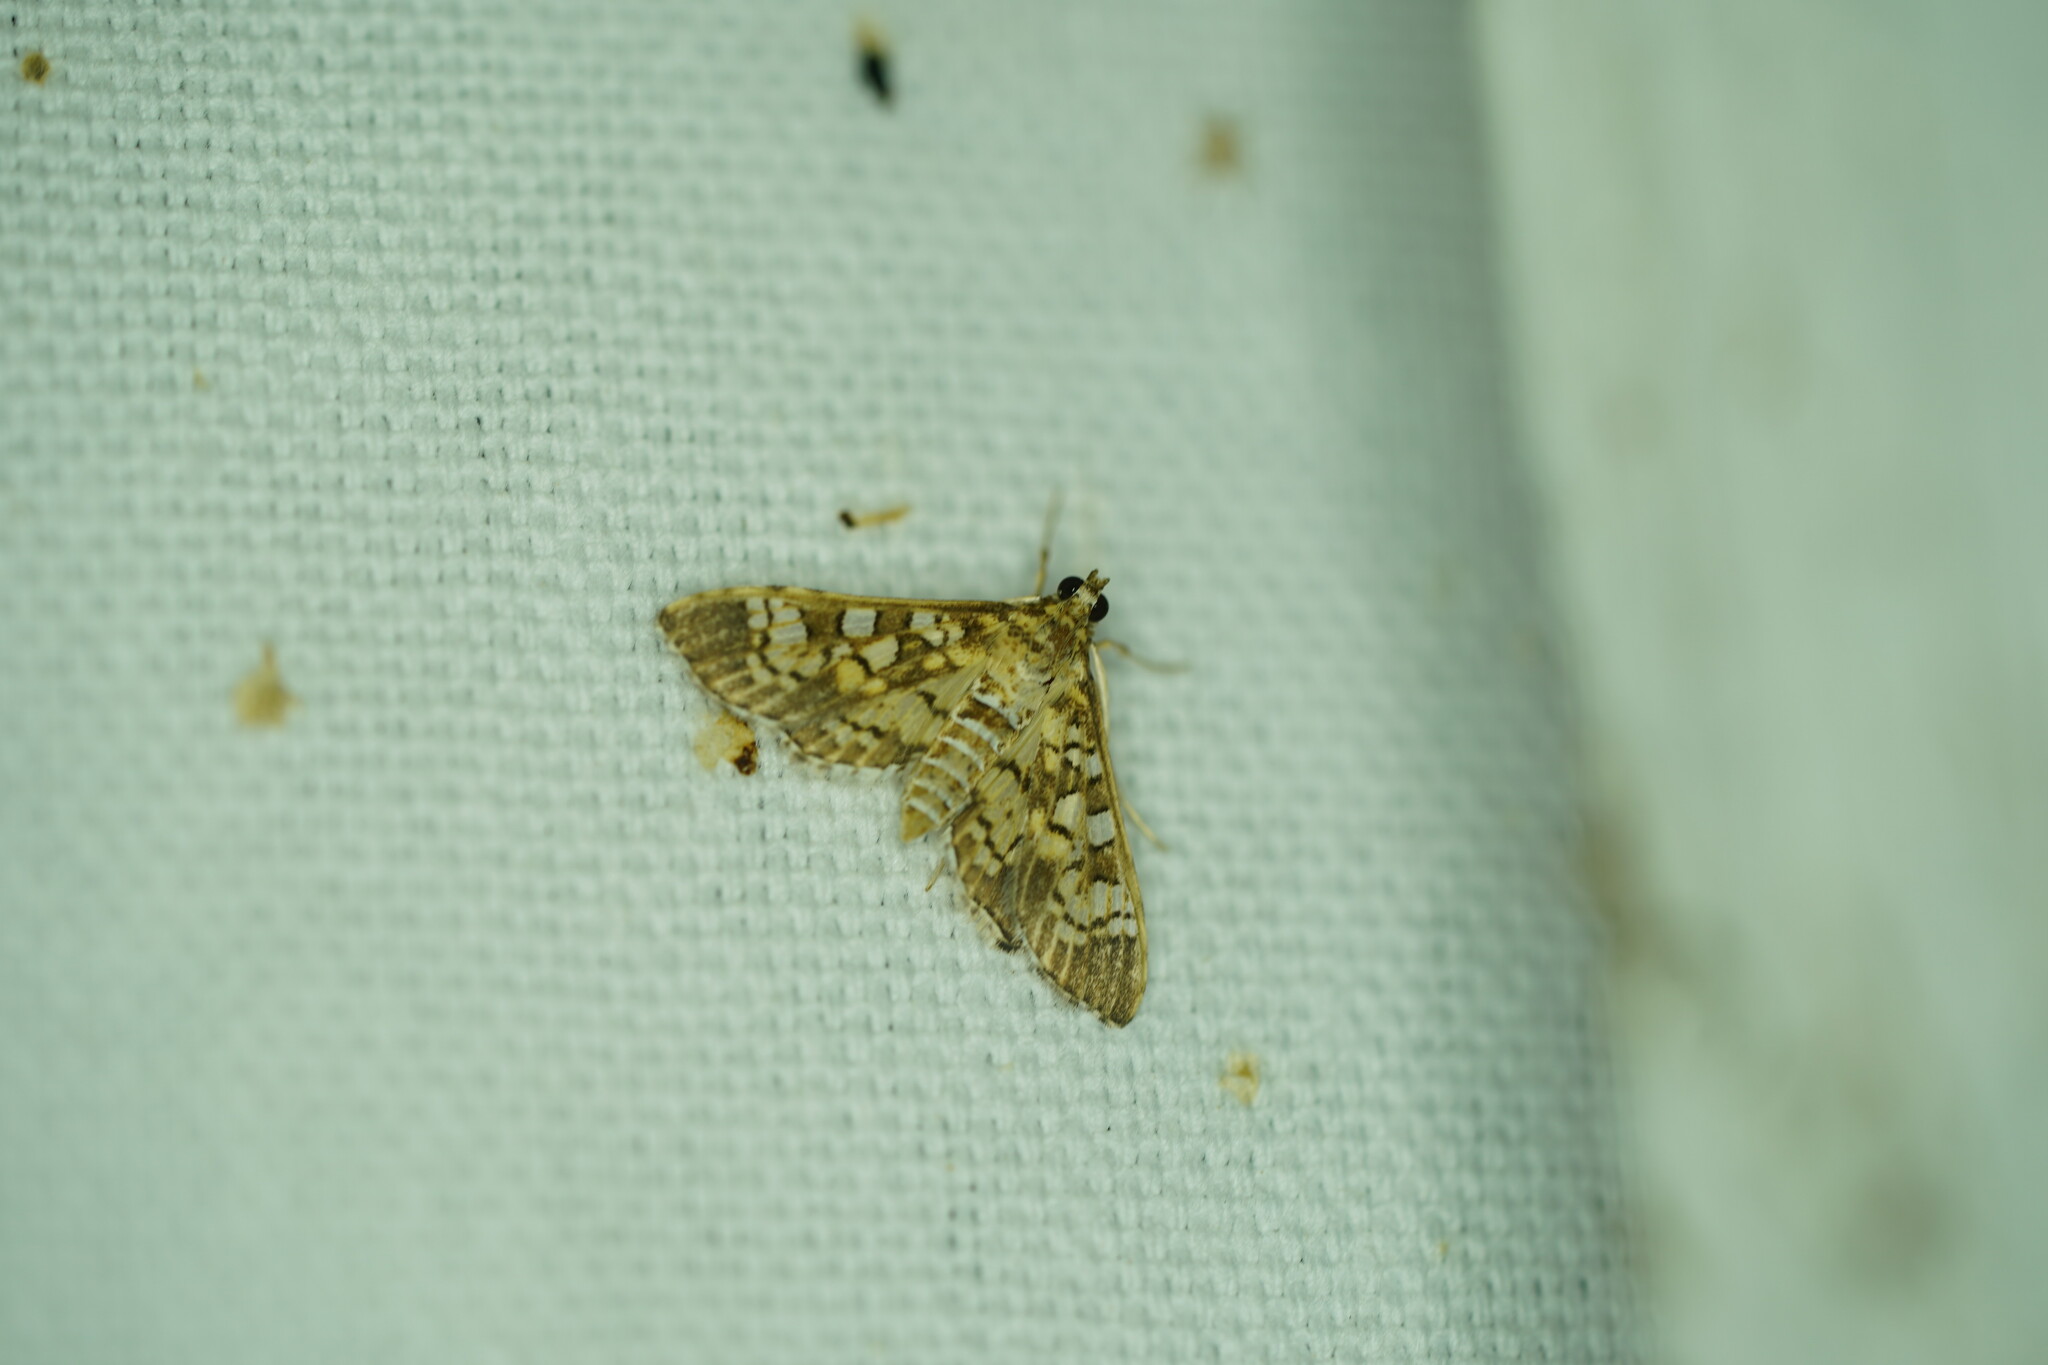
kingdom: Animalia
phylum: Arthropoda
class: Insecta
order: Lepidoptera
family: Crambidae
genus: Samea
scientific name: Samea ecclesialis
